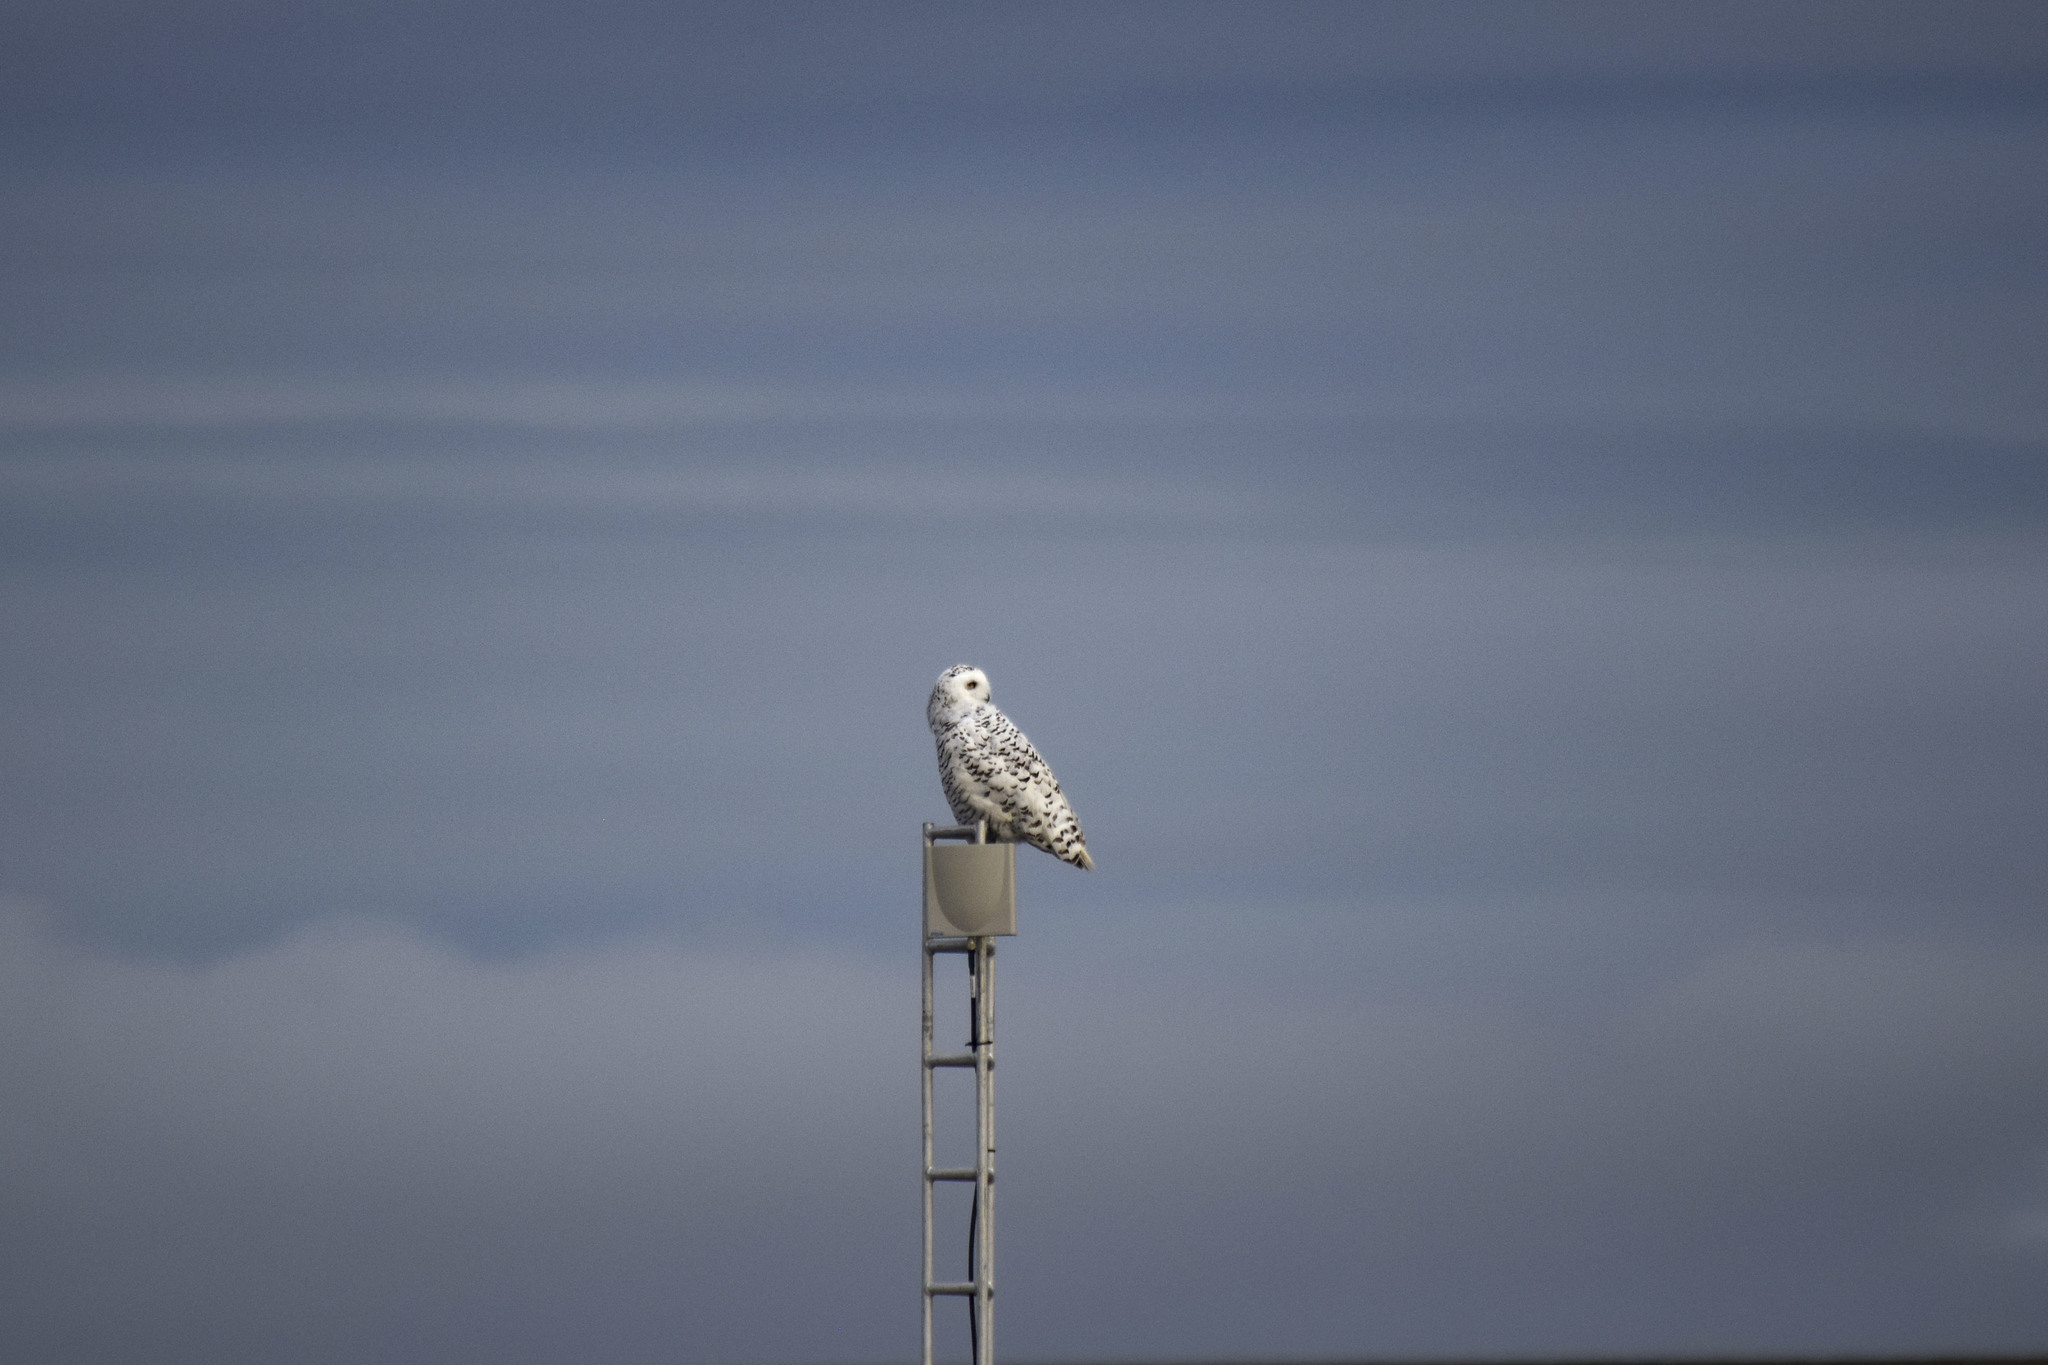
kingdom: Animalia
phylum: Chordata
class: Aves
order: Strigiformes
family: Strigidae
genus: Bubo
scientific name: Bubo scandiacus
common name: Snowy owl
